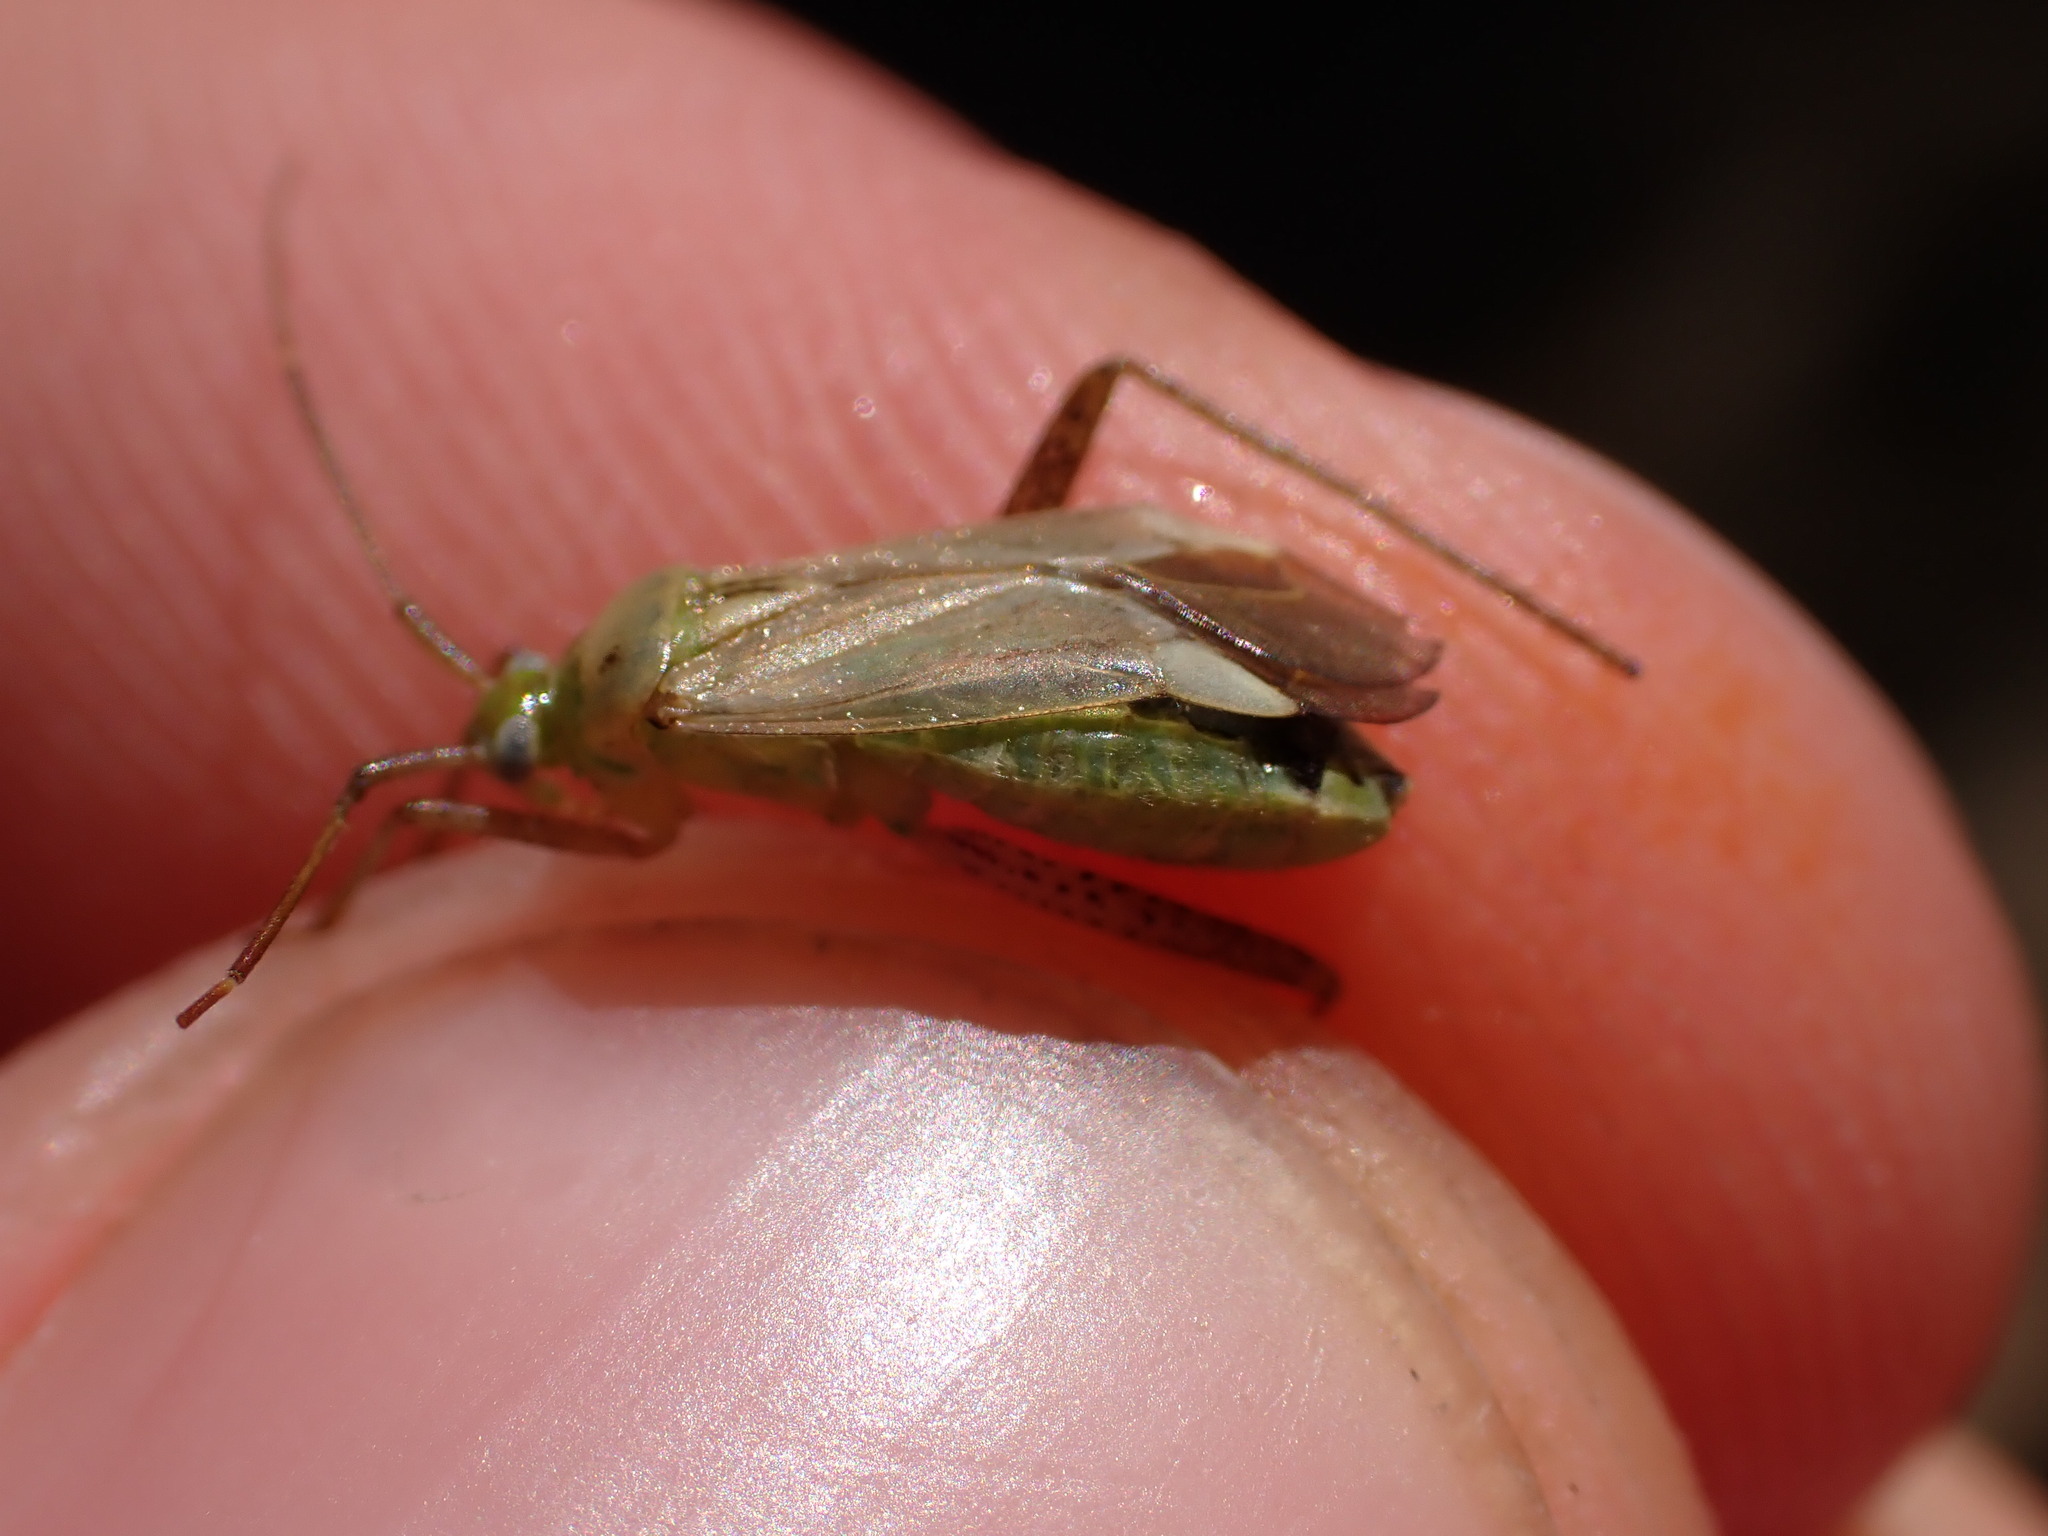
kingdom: Animalia
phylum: Arthropoda
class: Insecta
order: Hemiptera
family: Miridae
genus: Adelphocoris
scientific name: Adelphocoris lineolatus
